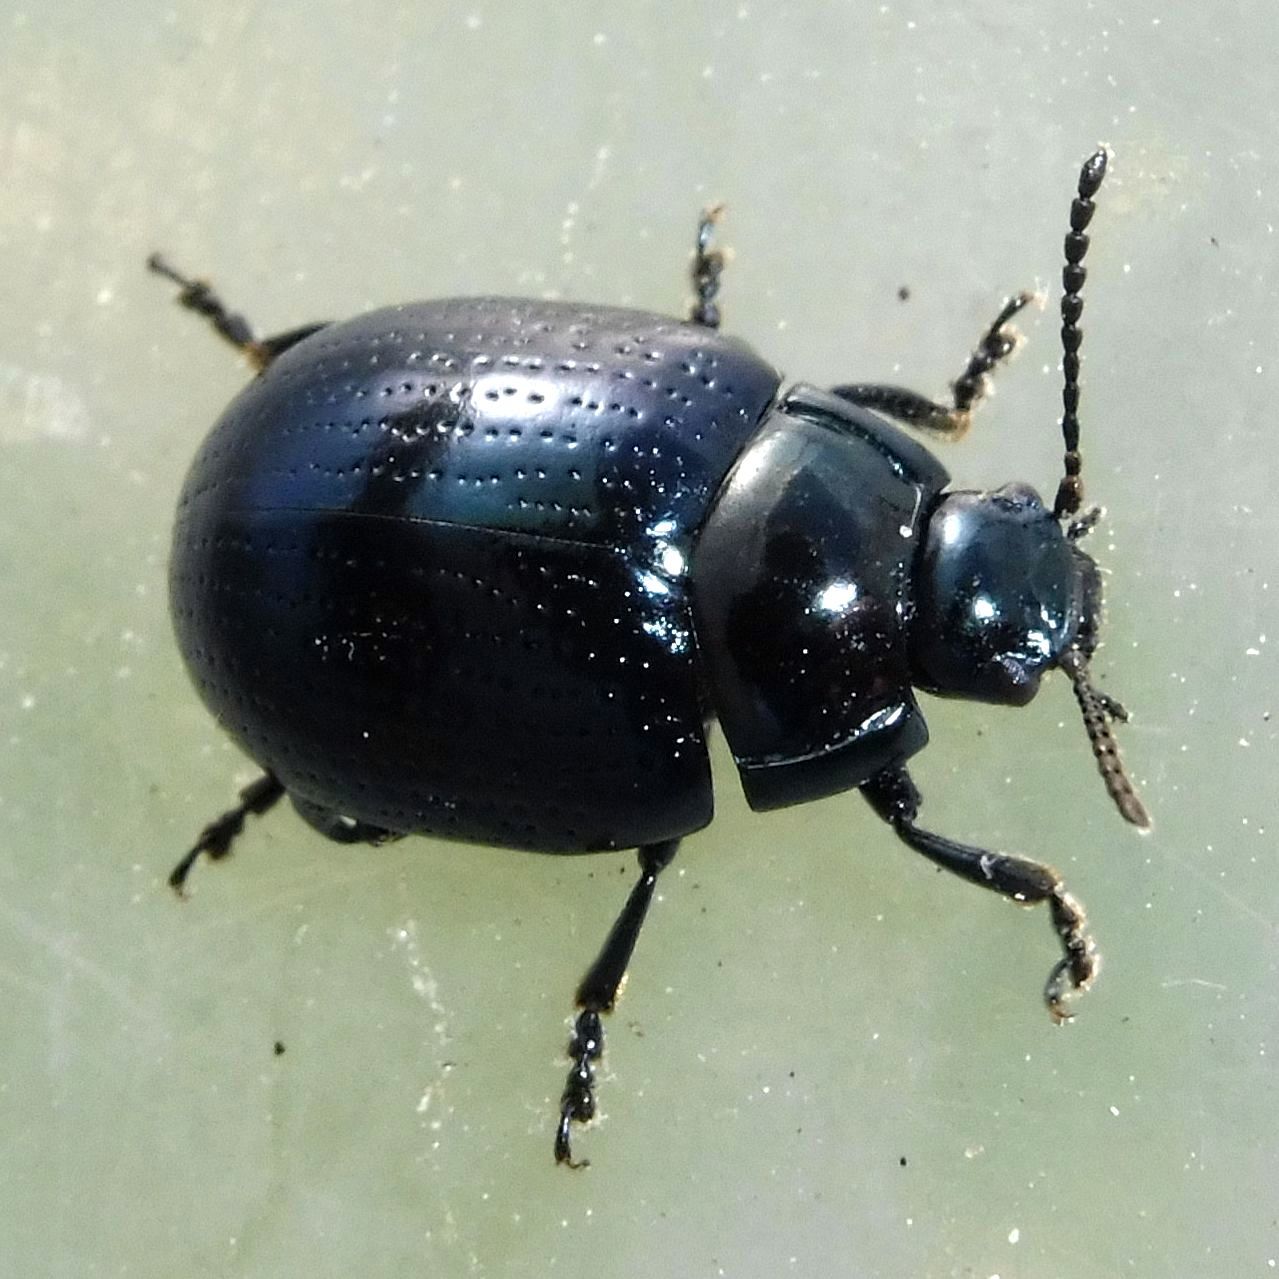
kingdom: Animalia
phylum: Arthropoda
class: Insecta
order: Coleoptera
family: Chrysomelidae
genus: Chrysolina
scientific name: Chrysolina oricalcia
